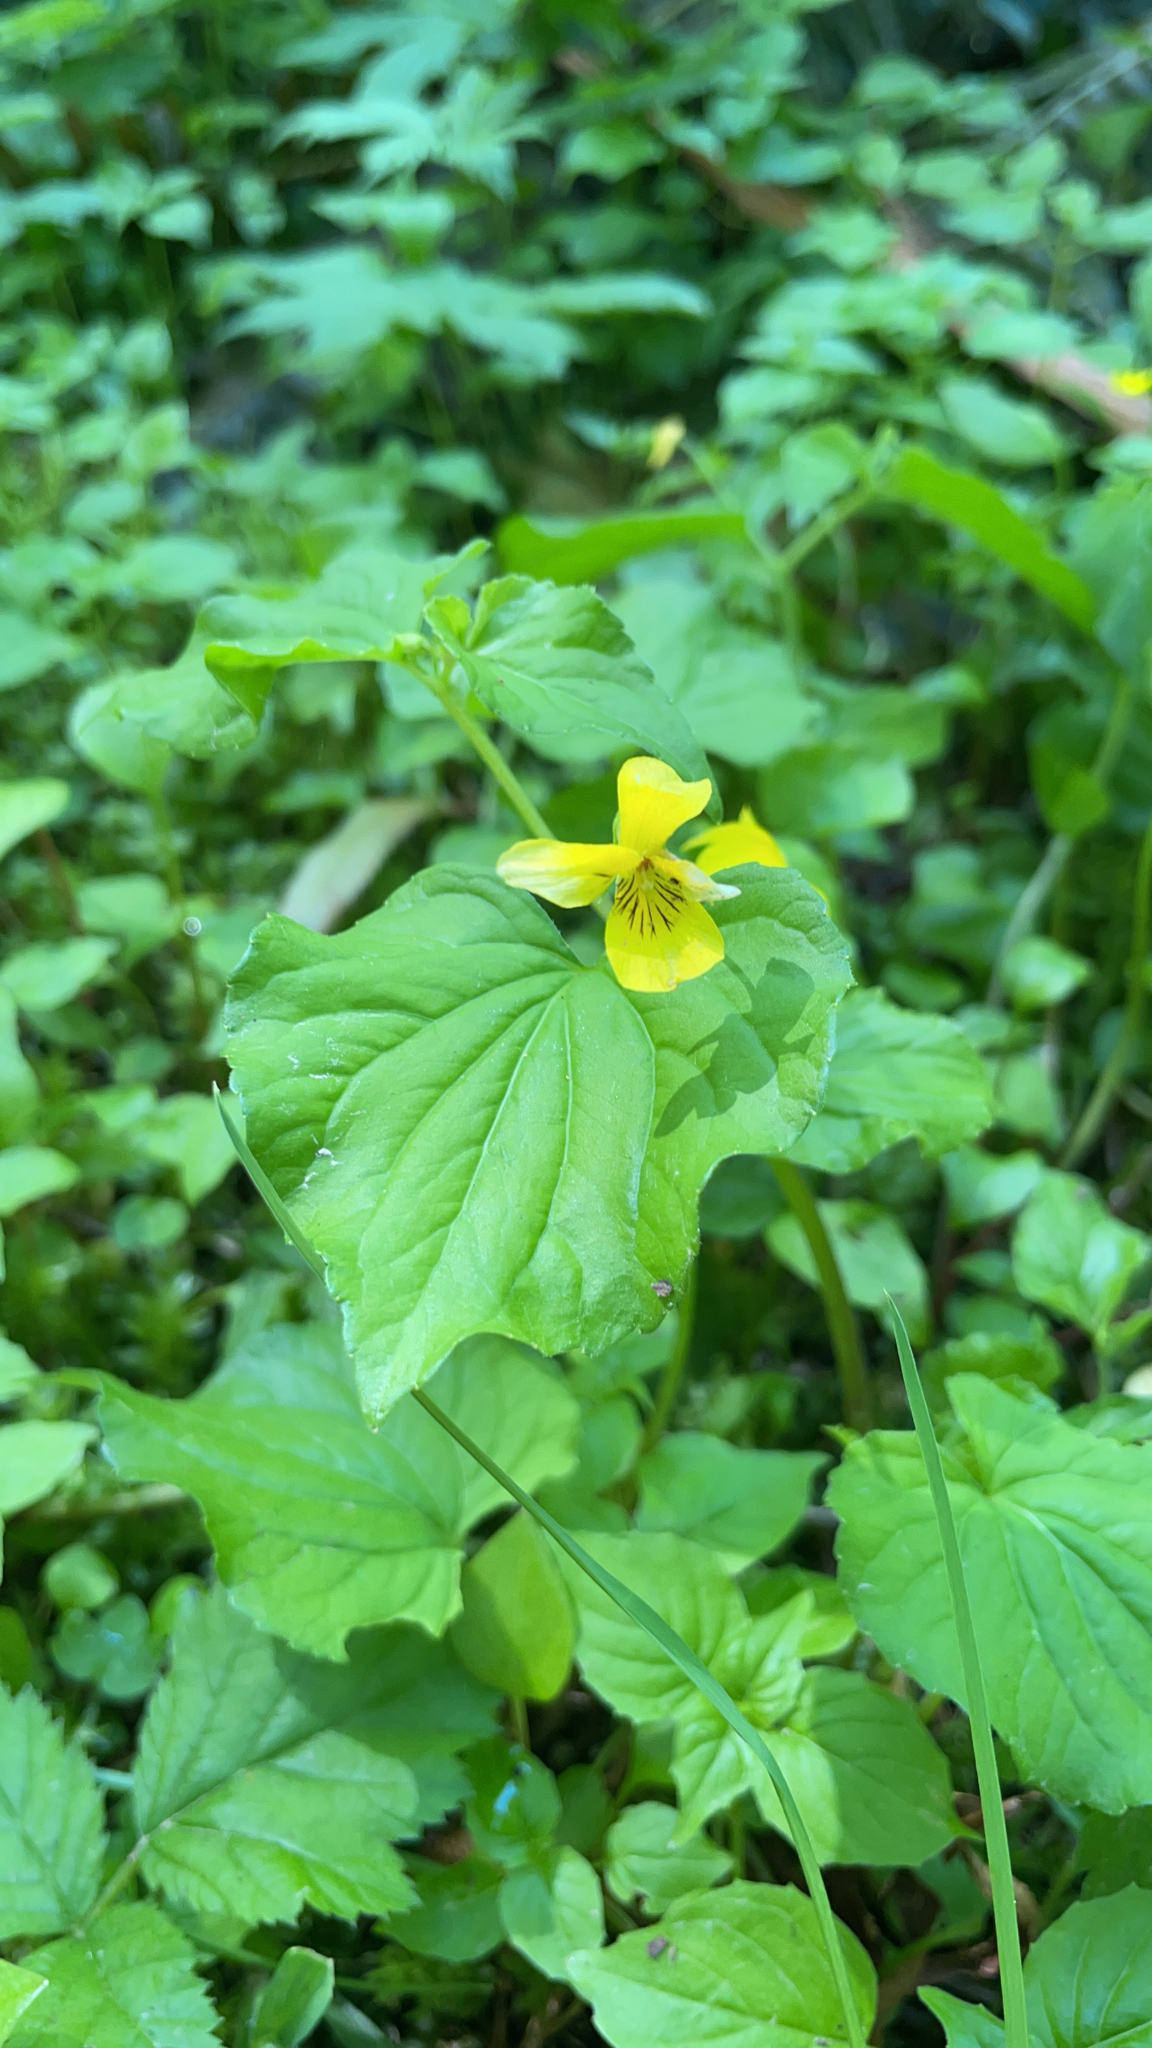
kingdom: Plantae
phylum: Tracheophyta
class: Magnoliopsida
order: Malpighiales
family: Violaceae
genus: Viola
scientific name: Viola glabella
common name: Stream violet
